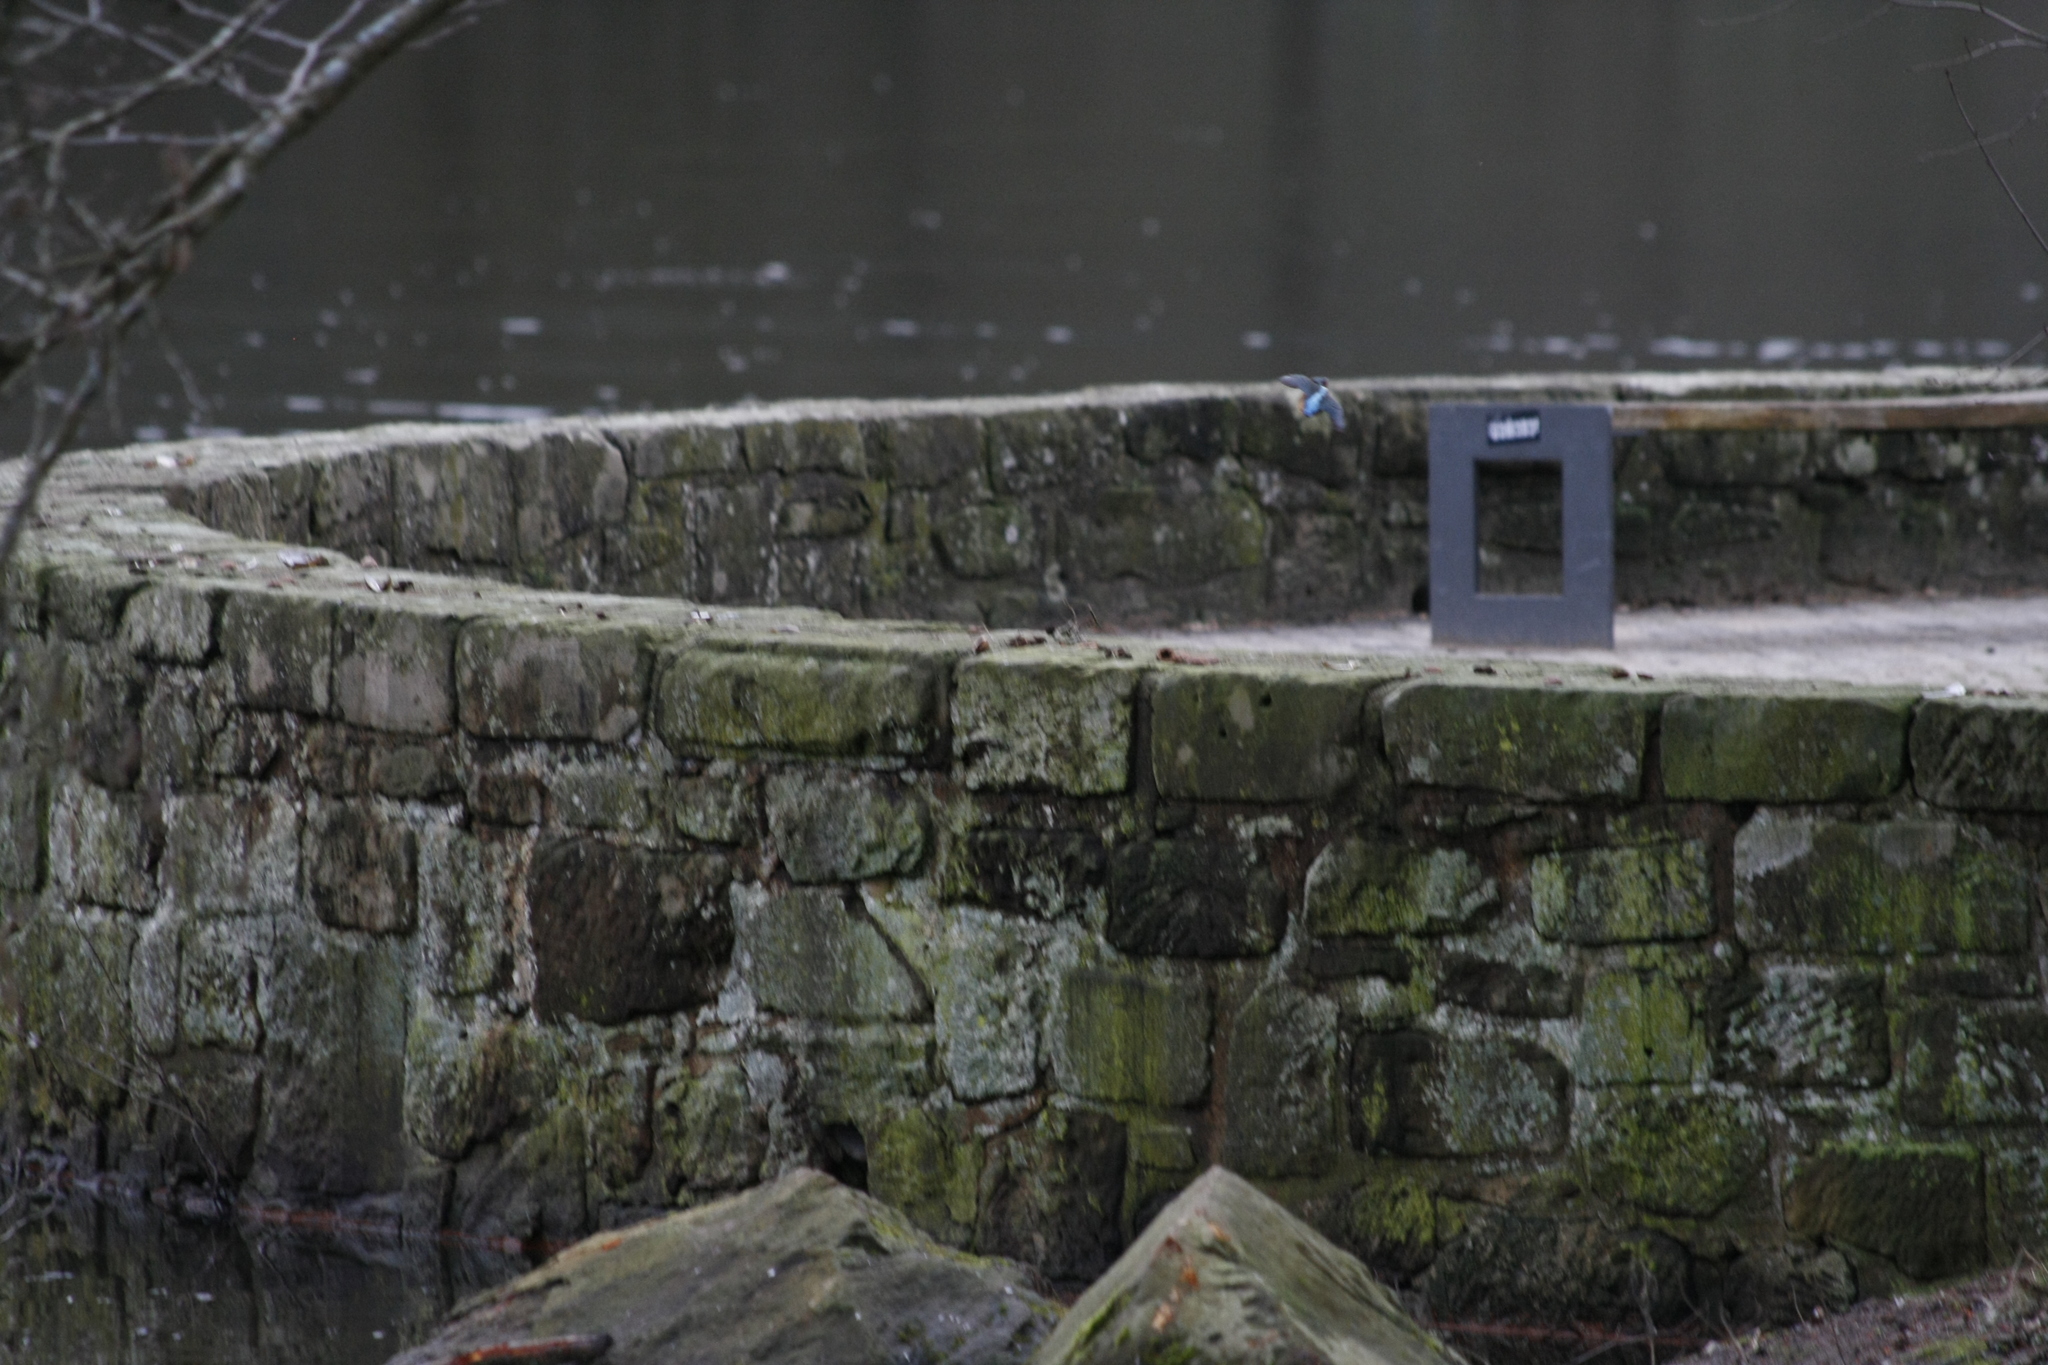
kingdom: Animalia
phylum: Chordata
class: Aves
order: Coraciiformes
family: Alcedinidae
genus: Alcedo
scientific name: Alcedo atthis
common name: Common kingfisher
